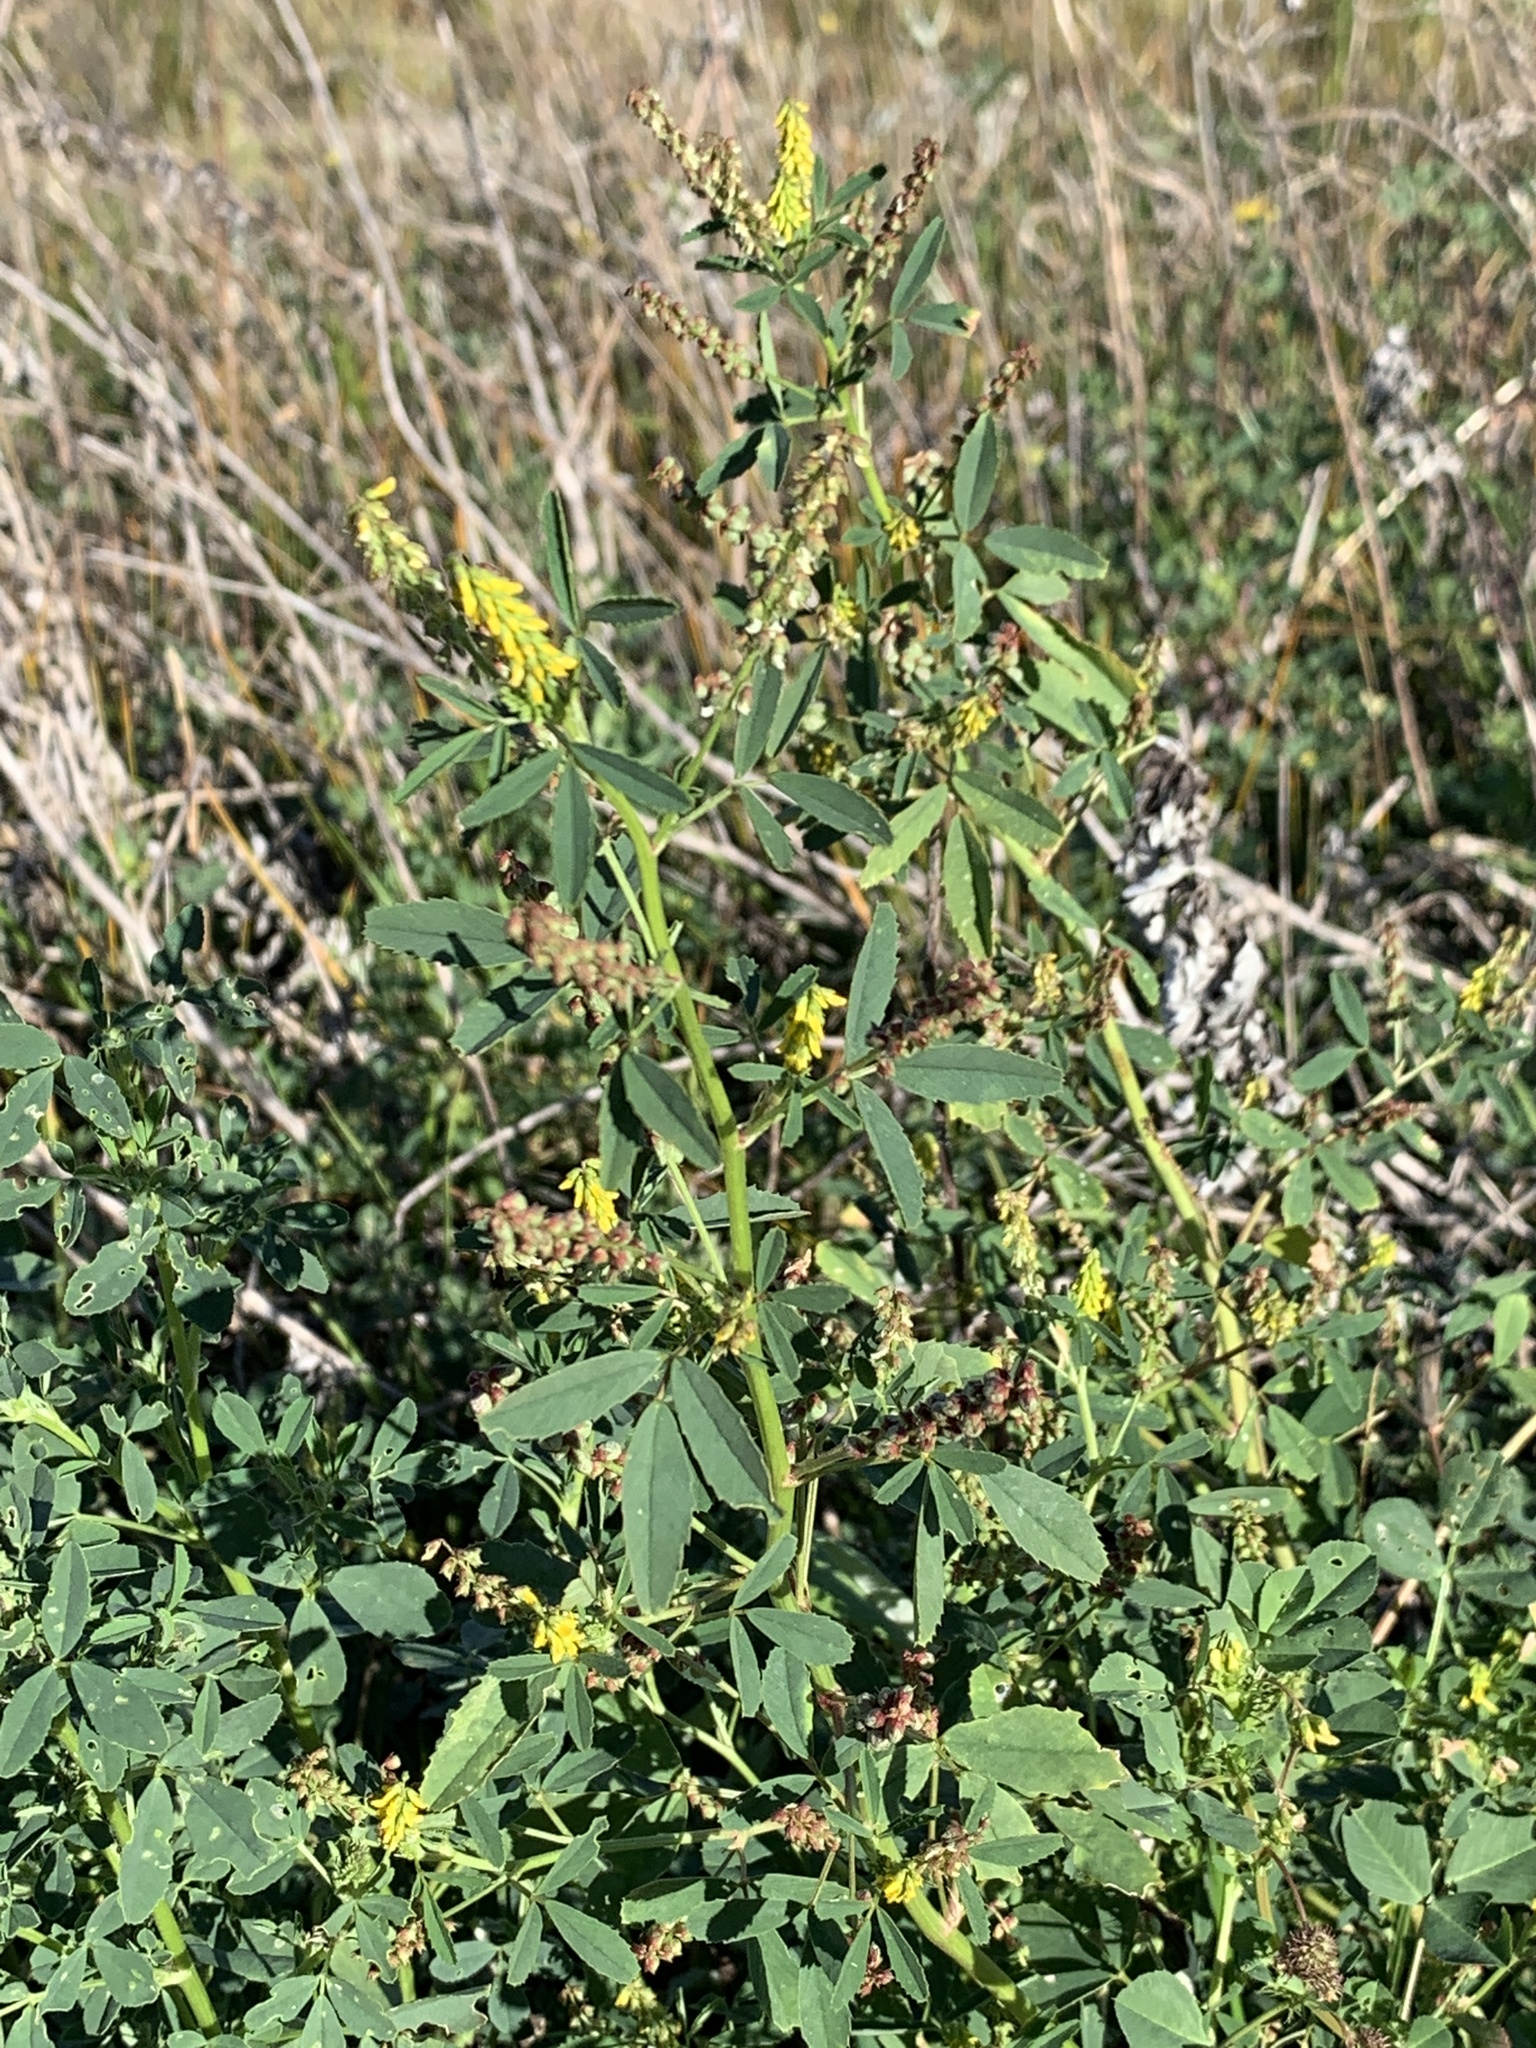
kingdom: Plantae
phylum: Tracheophyta
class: Magnoliopsida
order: Fabales
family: Fabaceae
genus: Melilotus
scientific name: Melilotus indicus
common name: Small melilot
